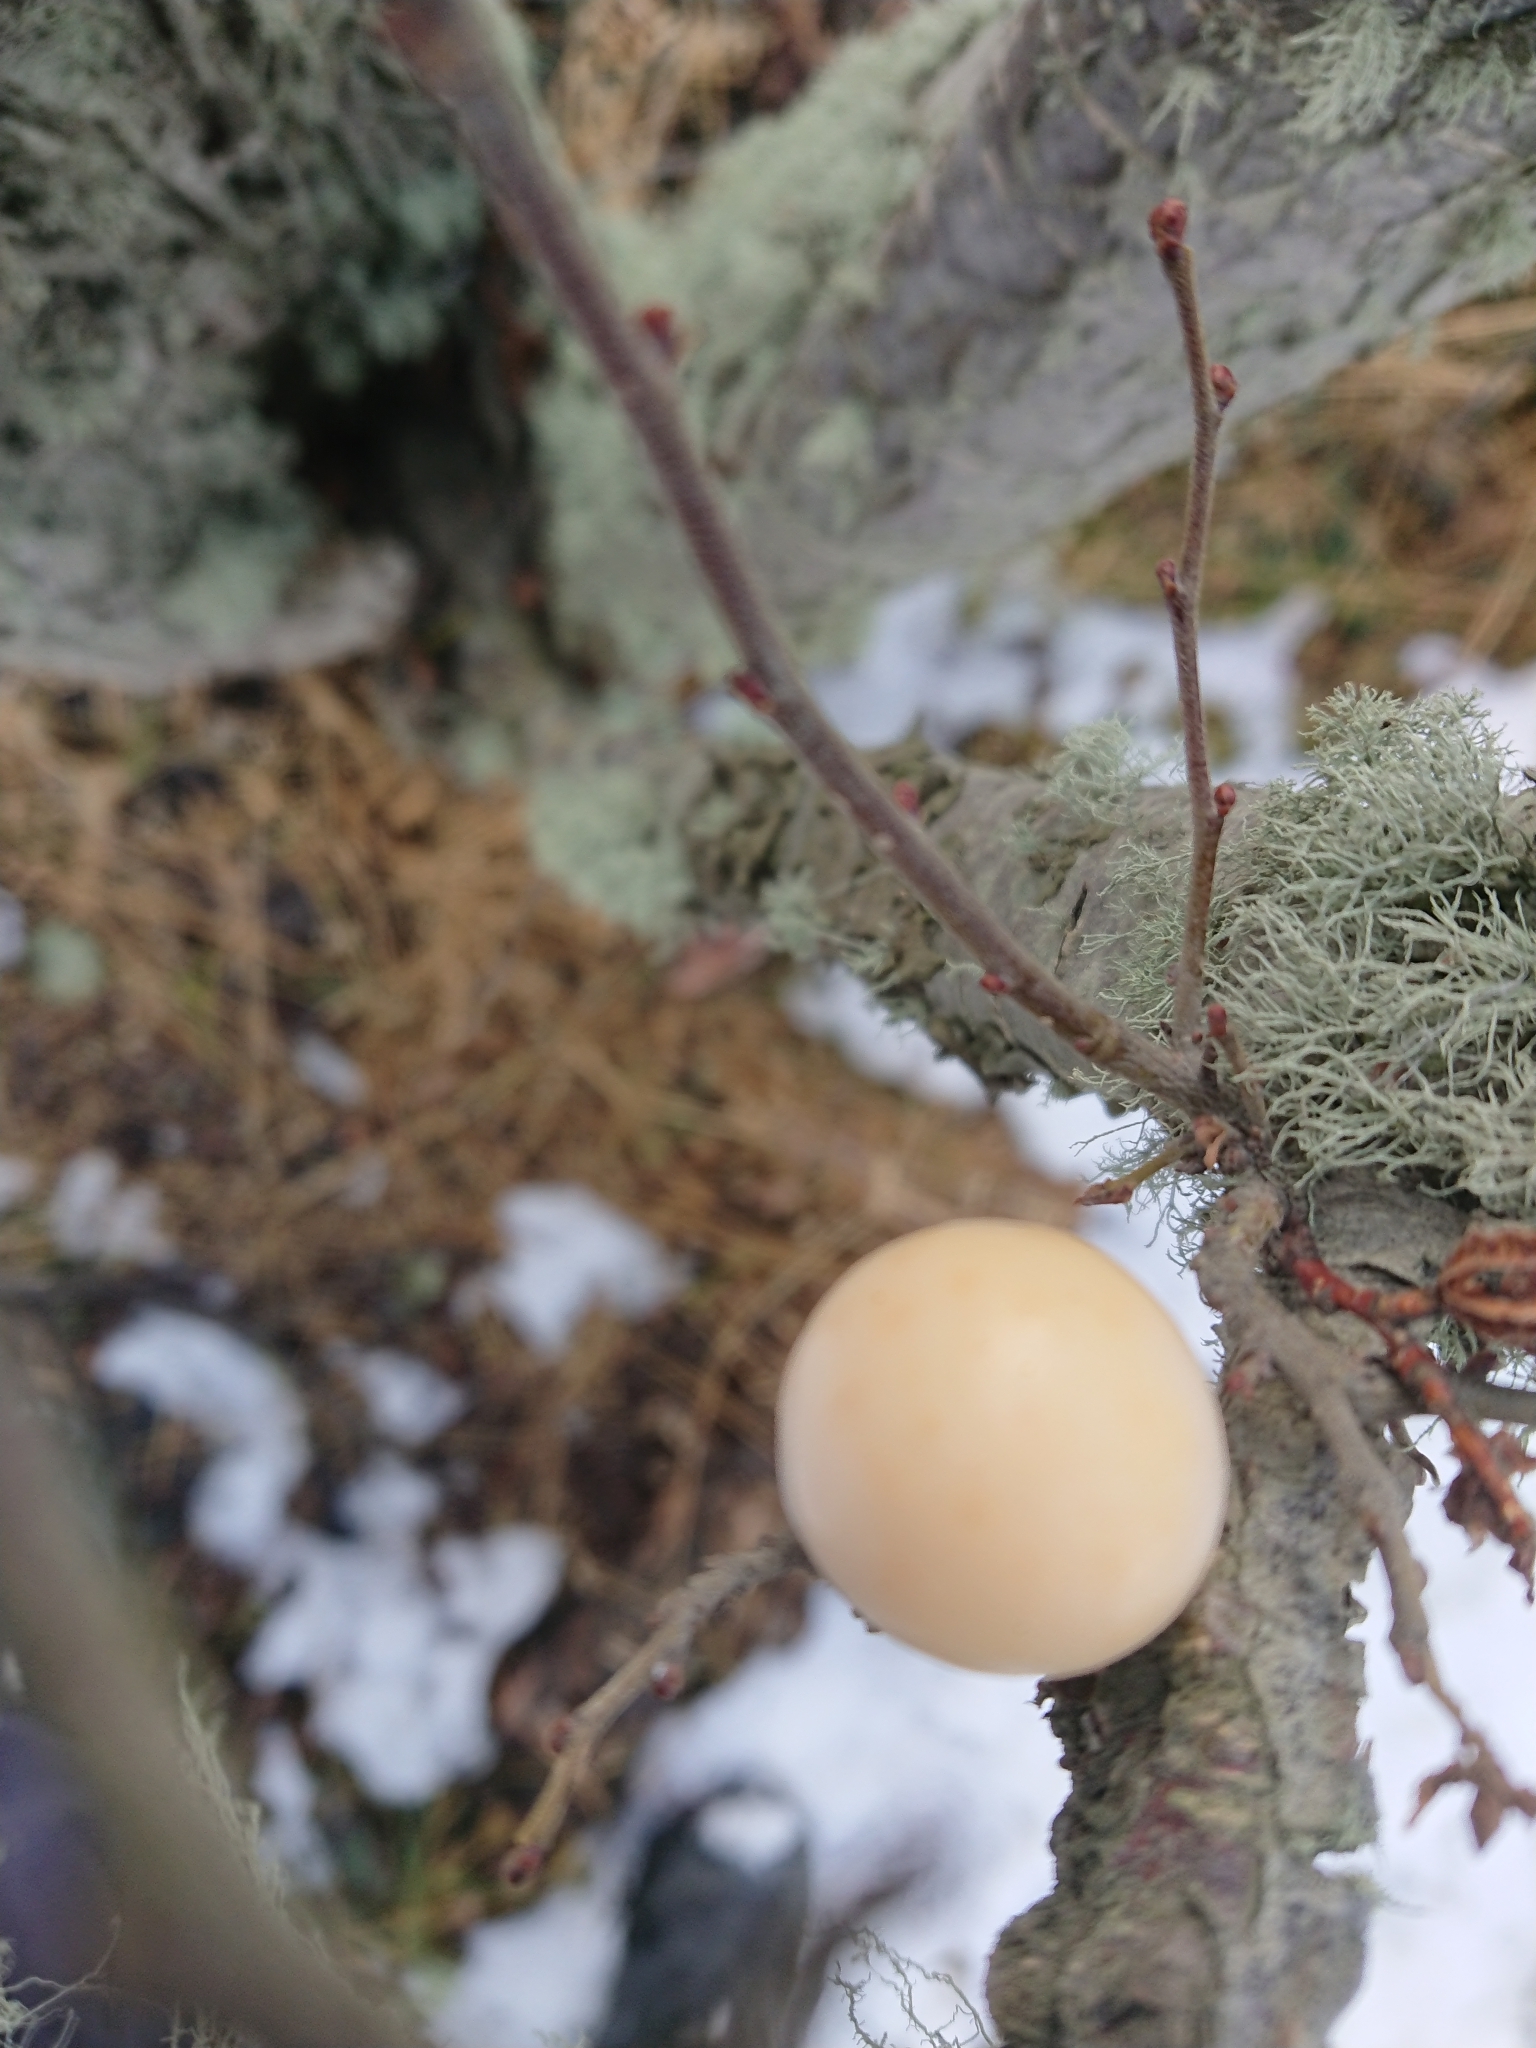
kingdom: Fungi
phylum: Ascomycota
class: Leotiomycetes
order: Cyttariales
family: Cyttariaceae
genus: Cyttaria
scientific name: Cyttaria darwinii
